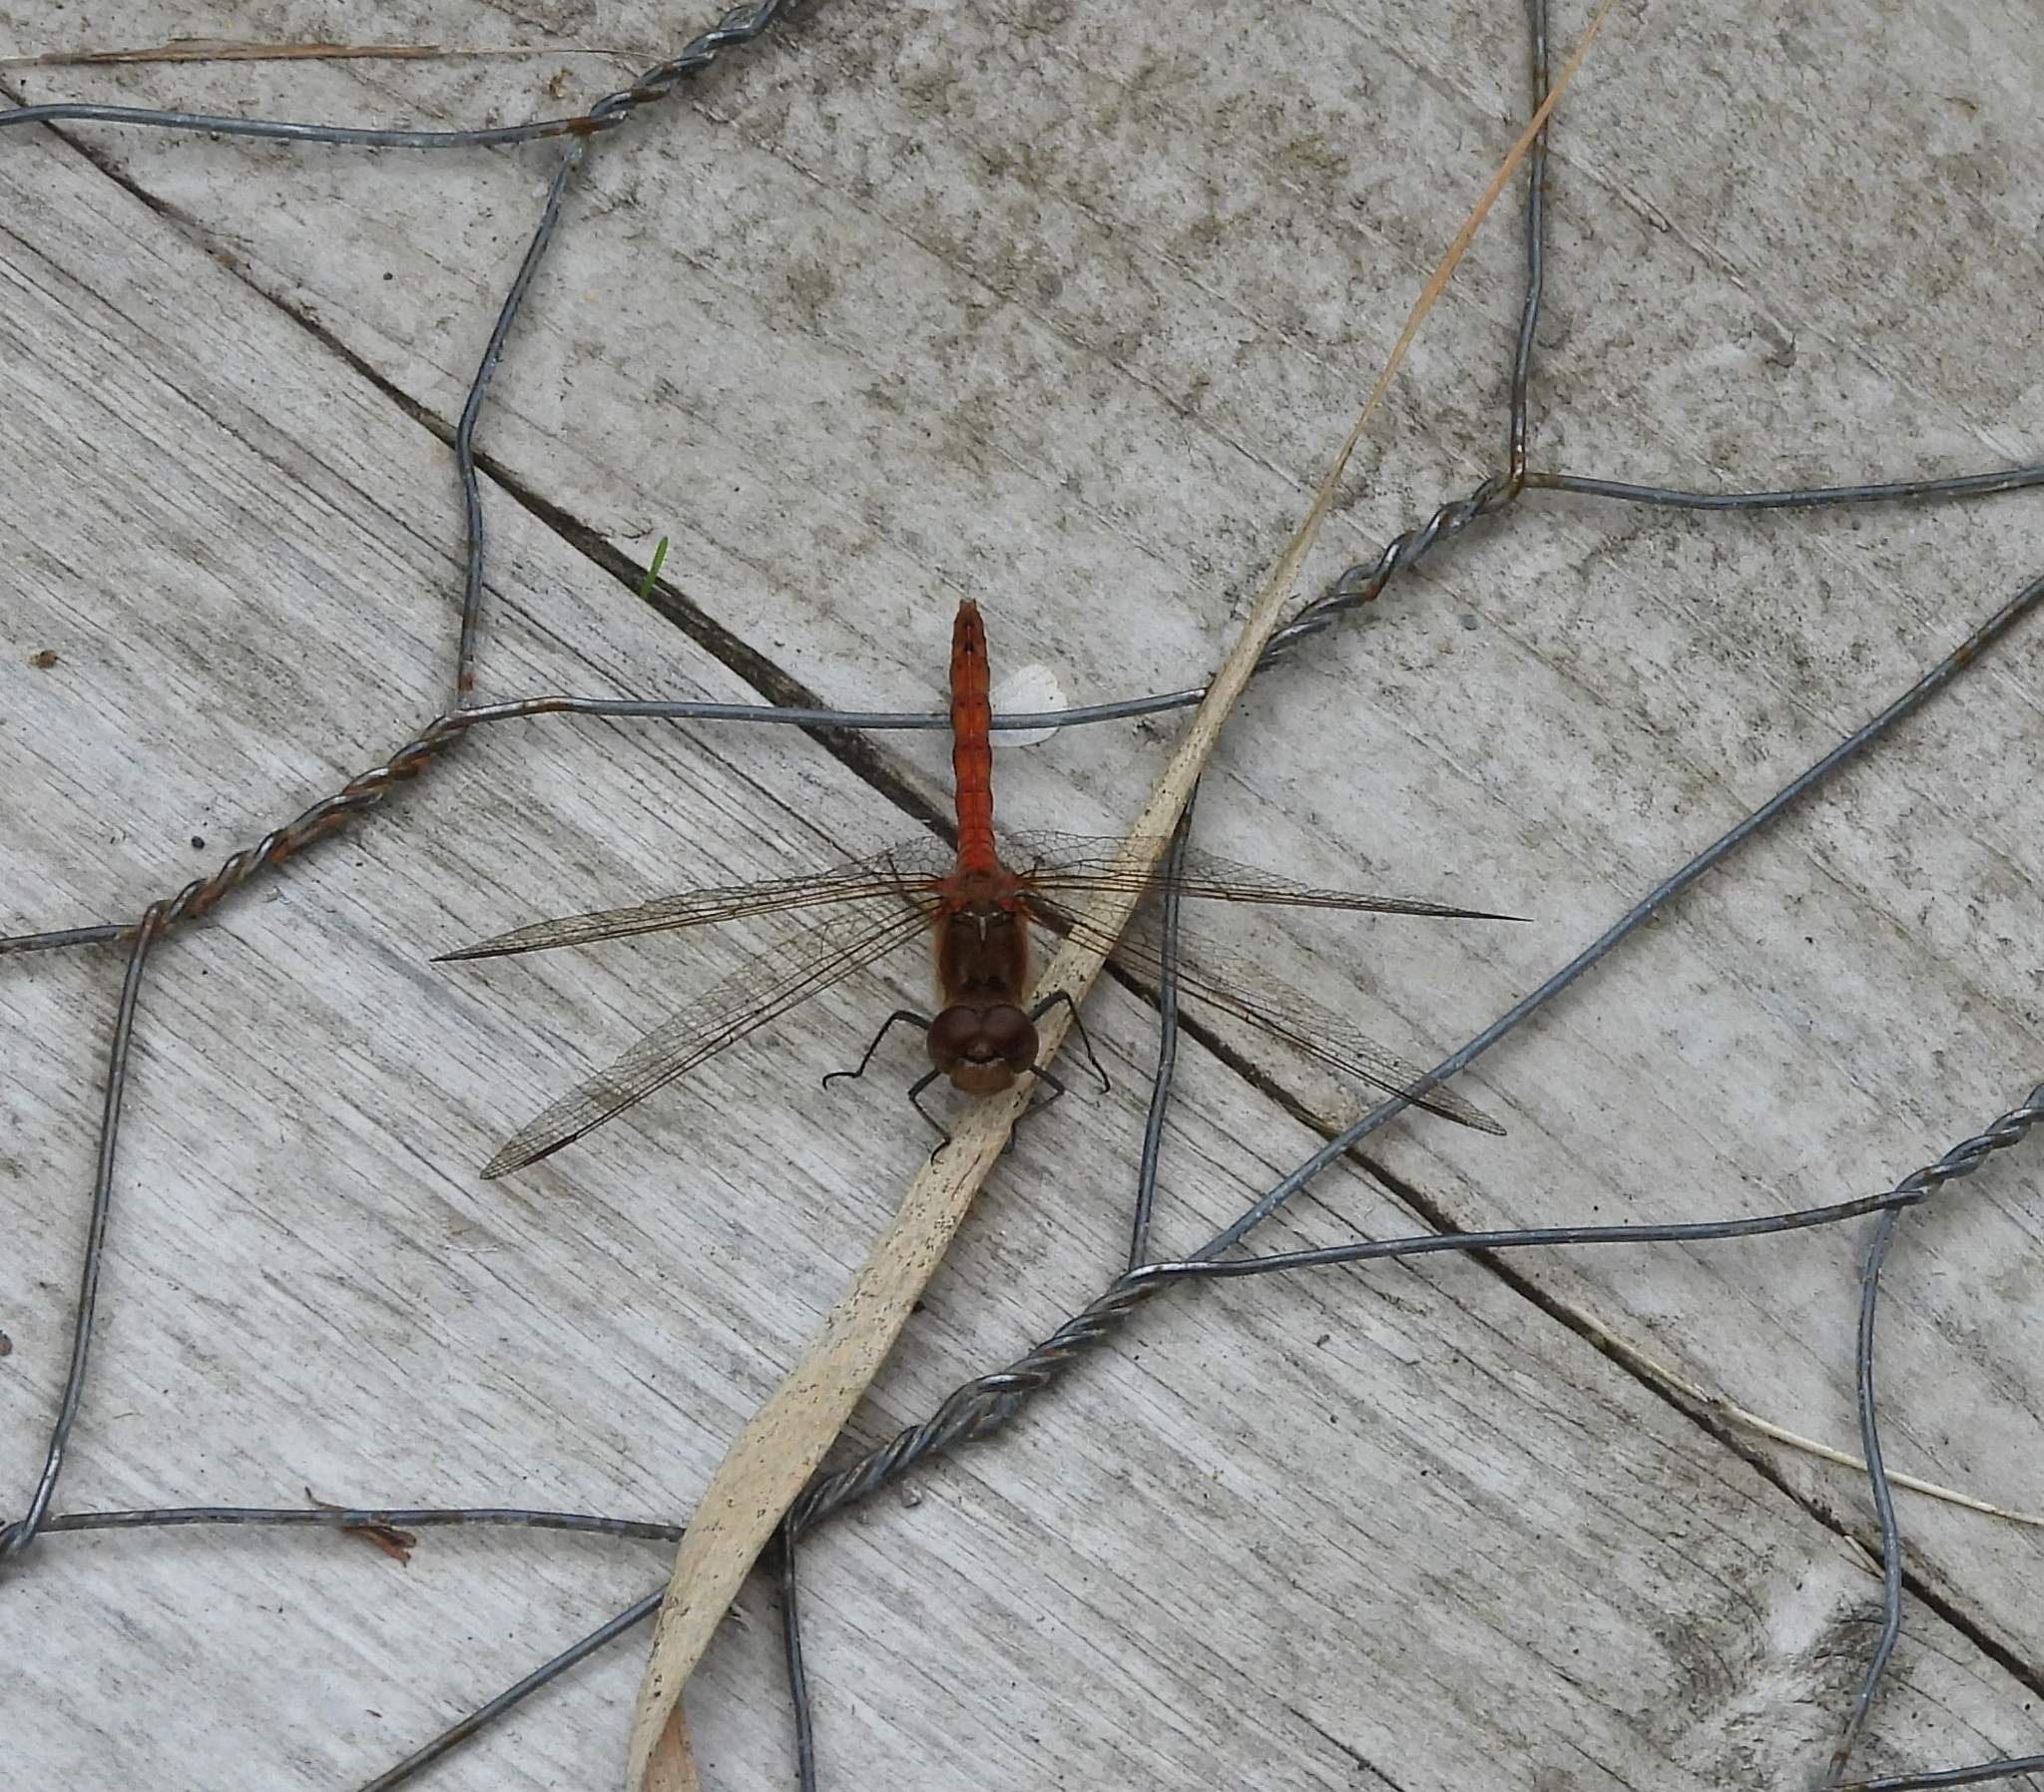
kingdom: Animalia
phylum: Arthropoda
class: Insecta
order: Odonata
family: Libellulidae
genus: Sympetrum
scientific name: Sympetrum striolatum
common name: Common darter
